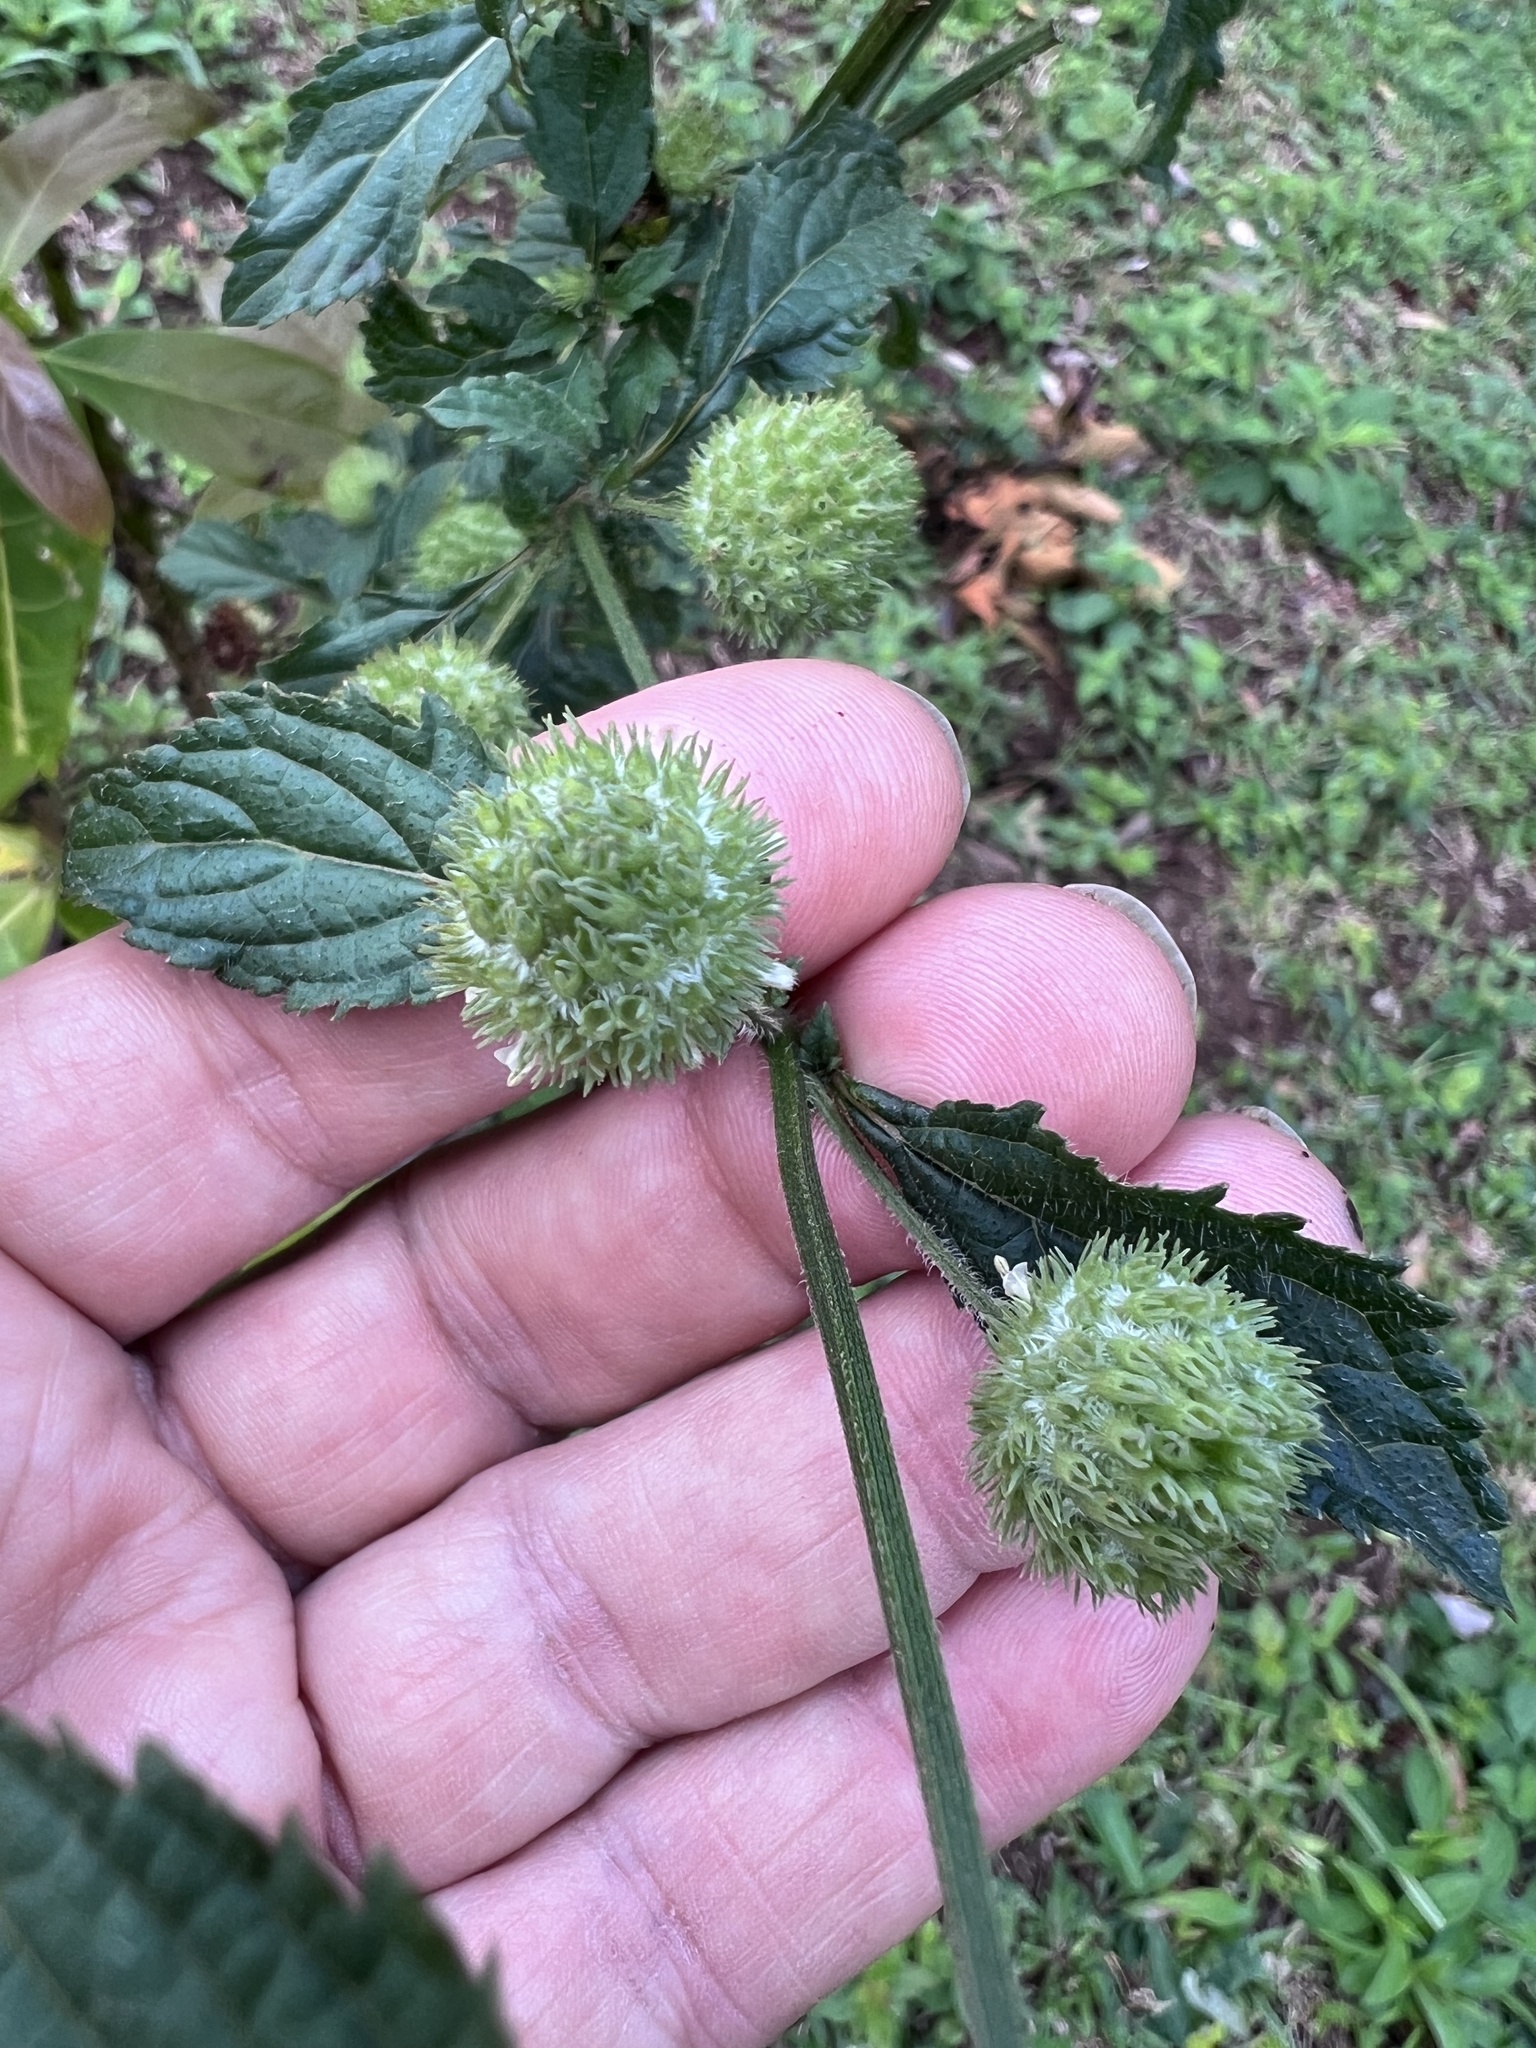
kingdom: Plantae
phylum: Tracheophyta
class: Magnoliopsida
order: Lamiales
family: Lamiaceae
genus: Hyptis
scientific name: Hyptis capitata
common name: False ironwort
